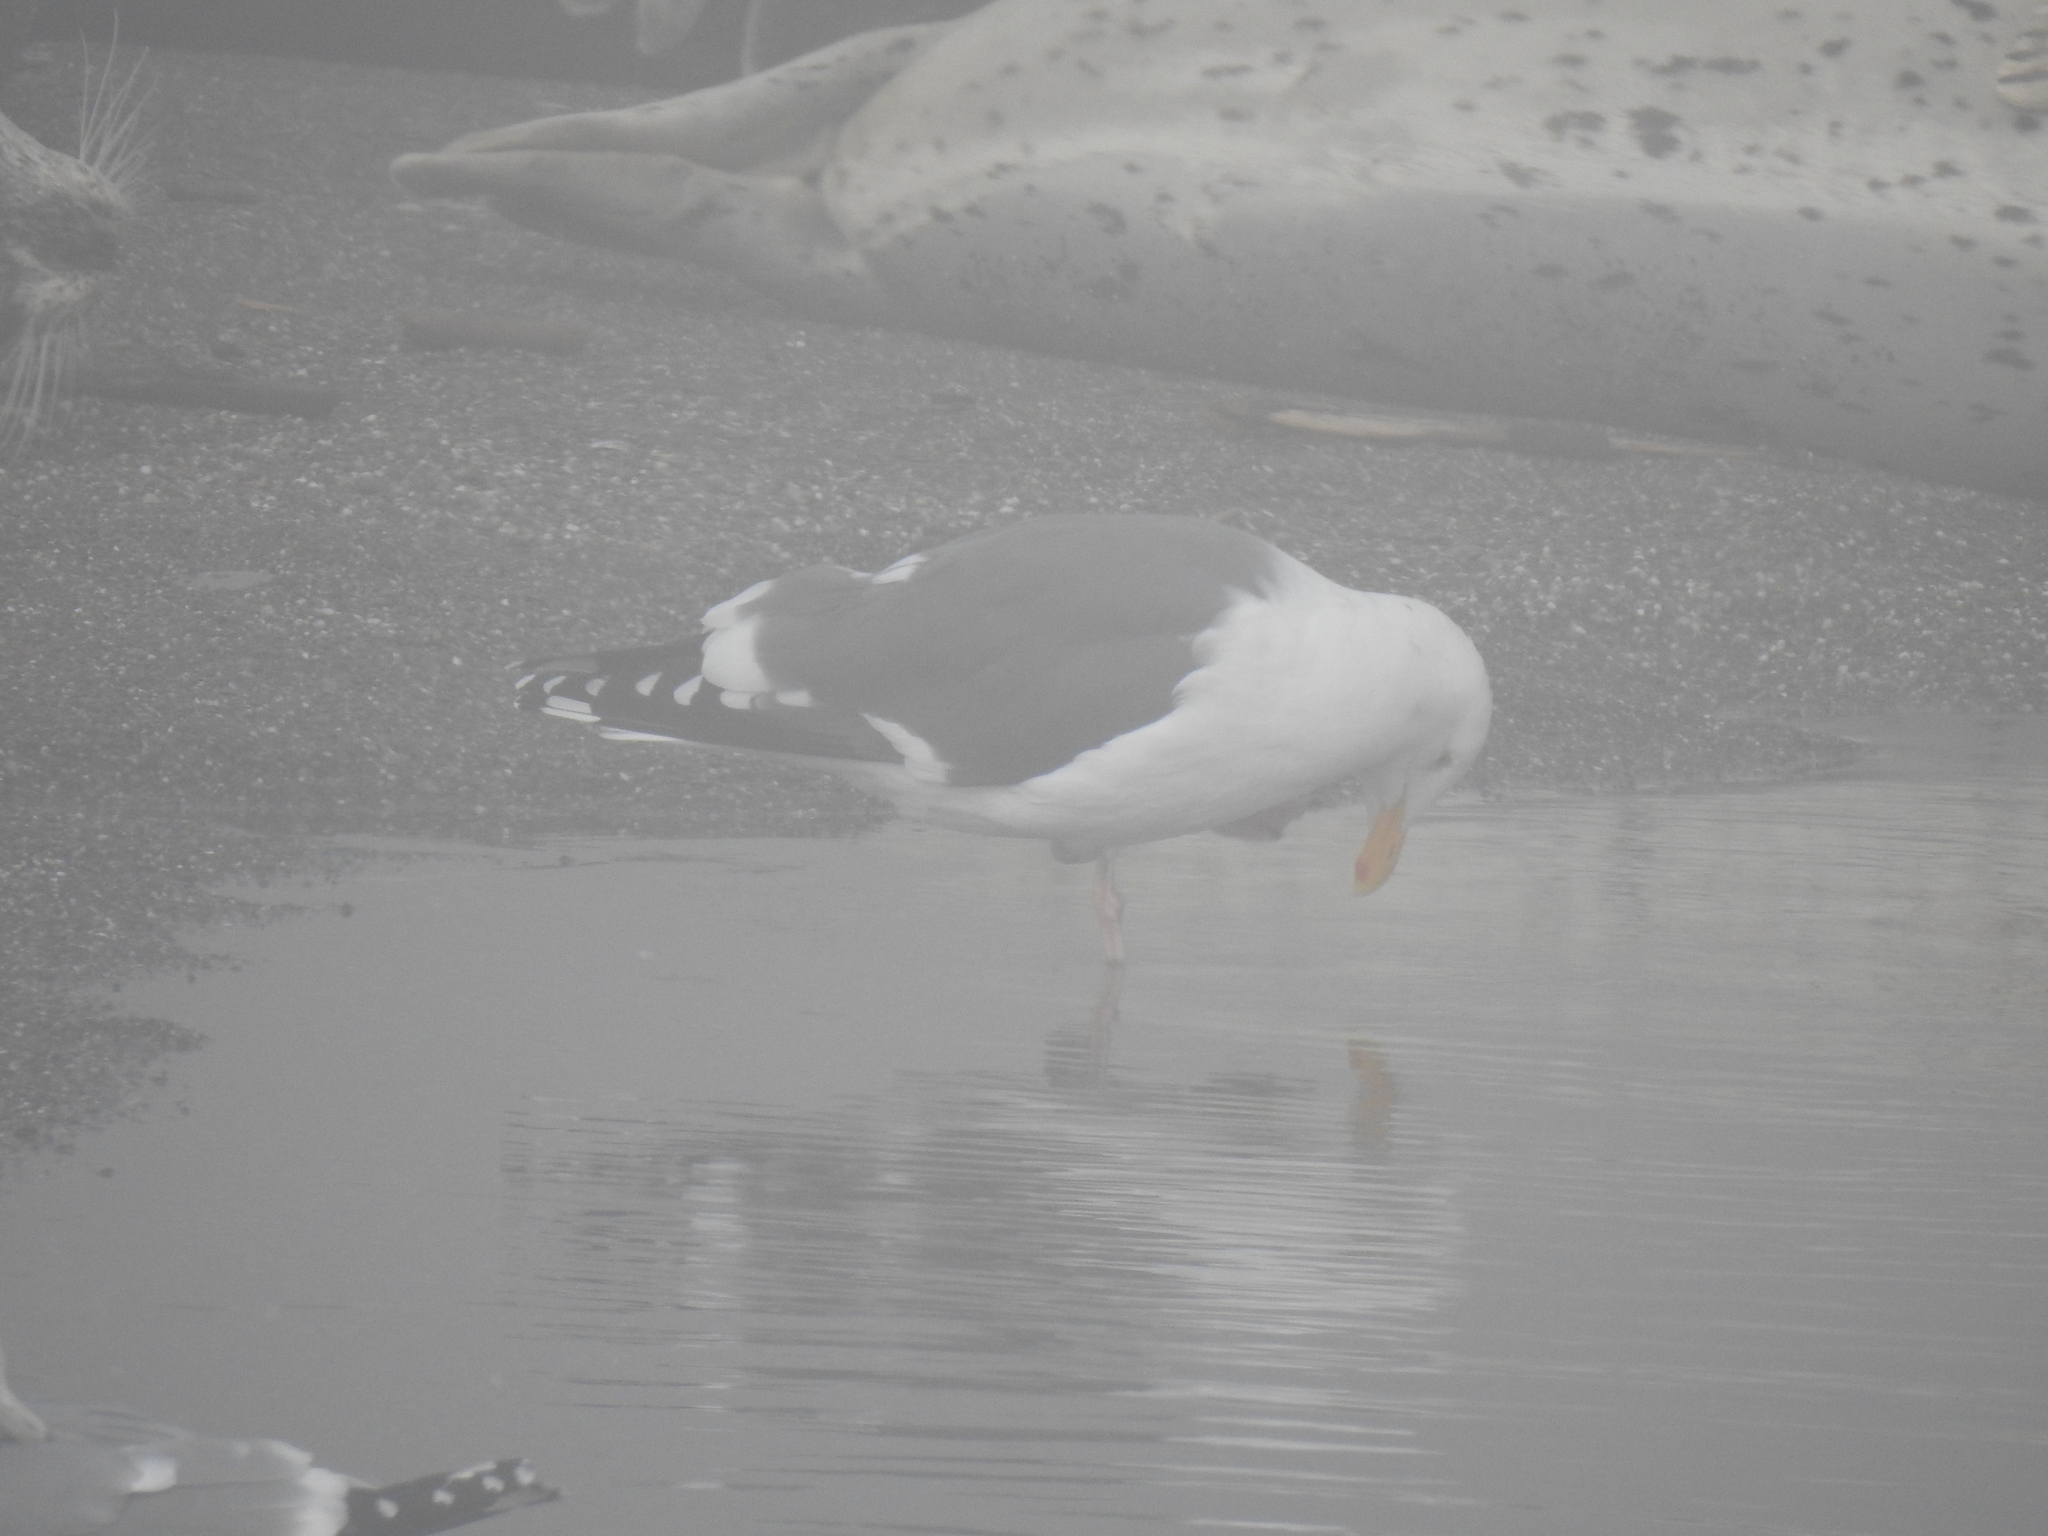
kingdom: Animalia
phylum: Chordata
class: Aves
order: Charadriiformes
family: Laridae
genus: Larus
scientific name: Larus occidentalis
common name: Western gull
